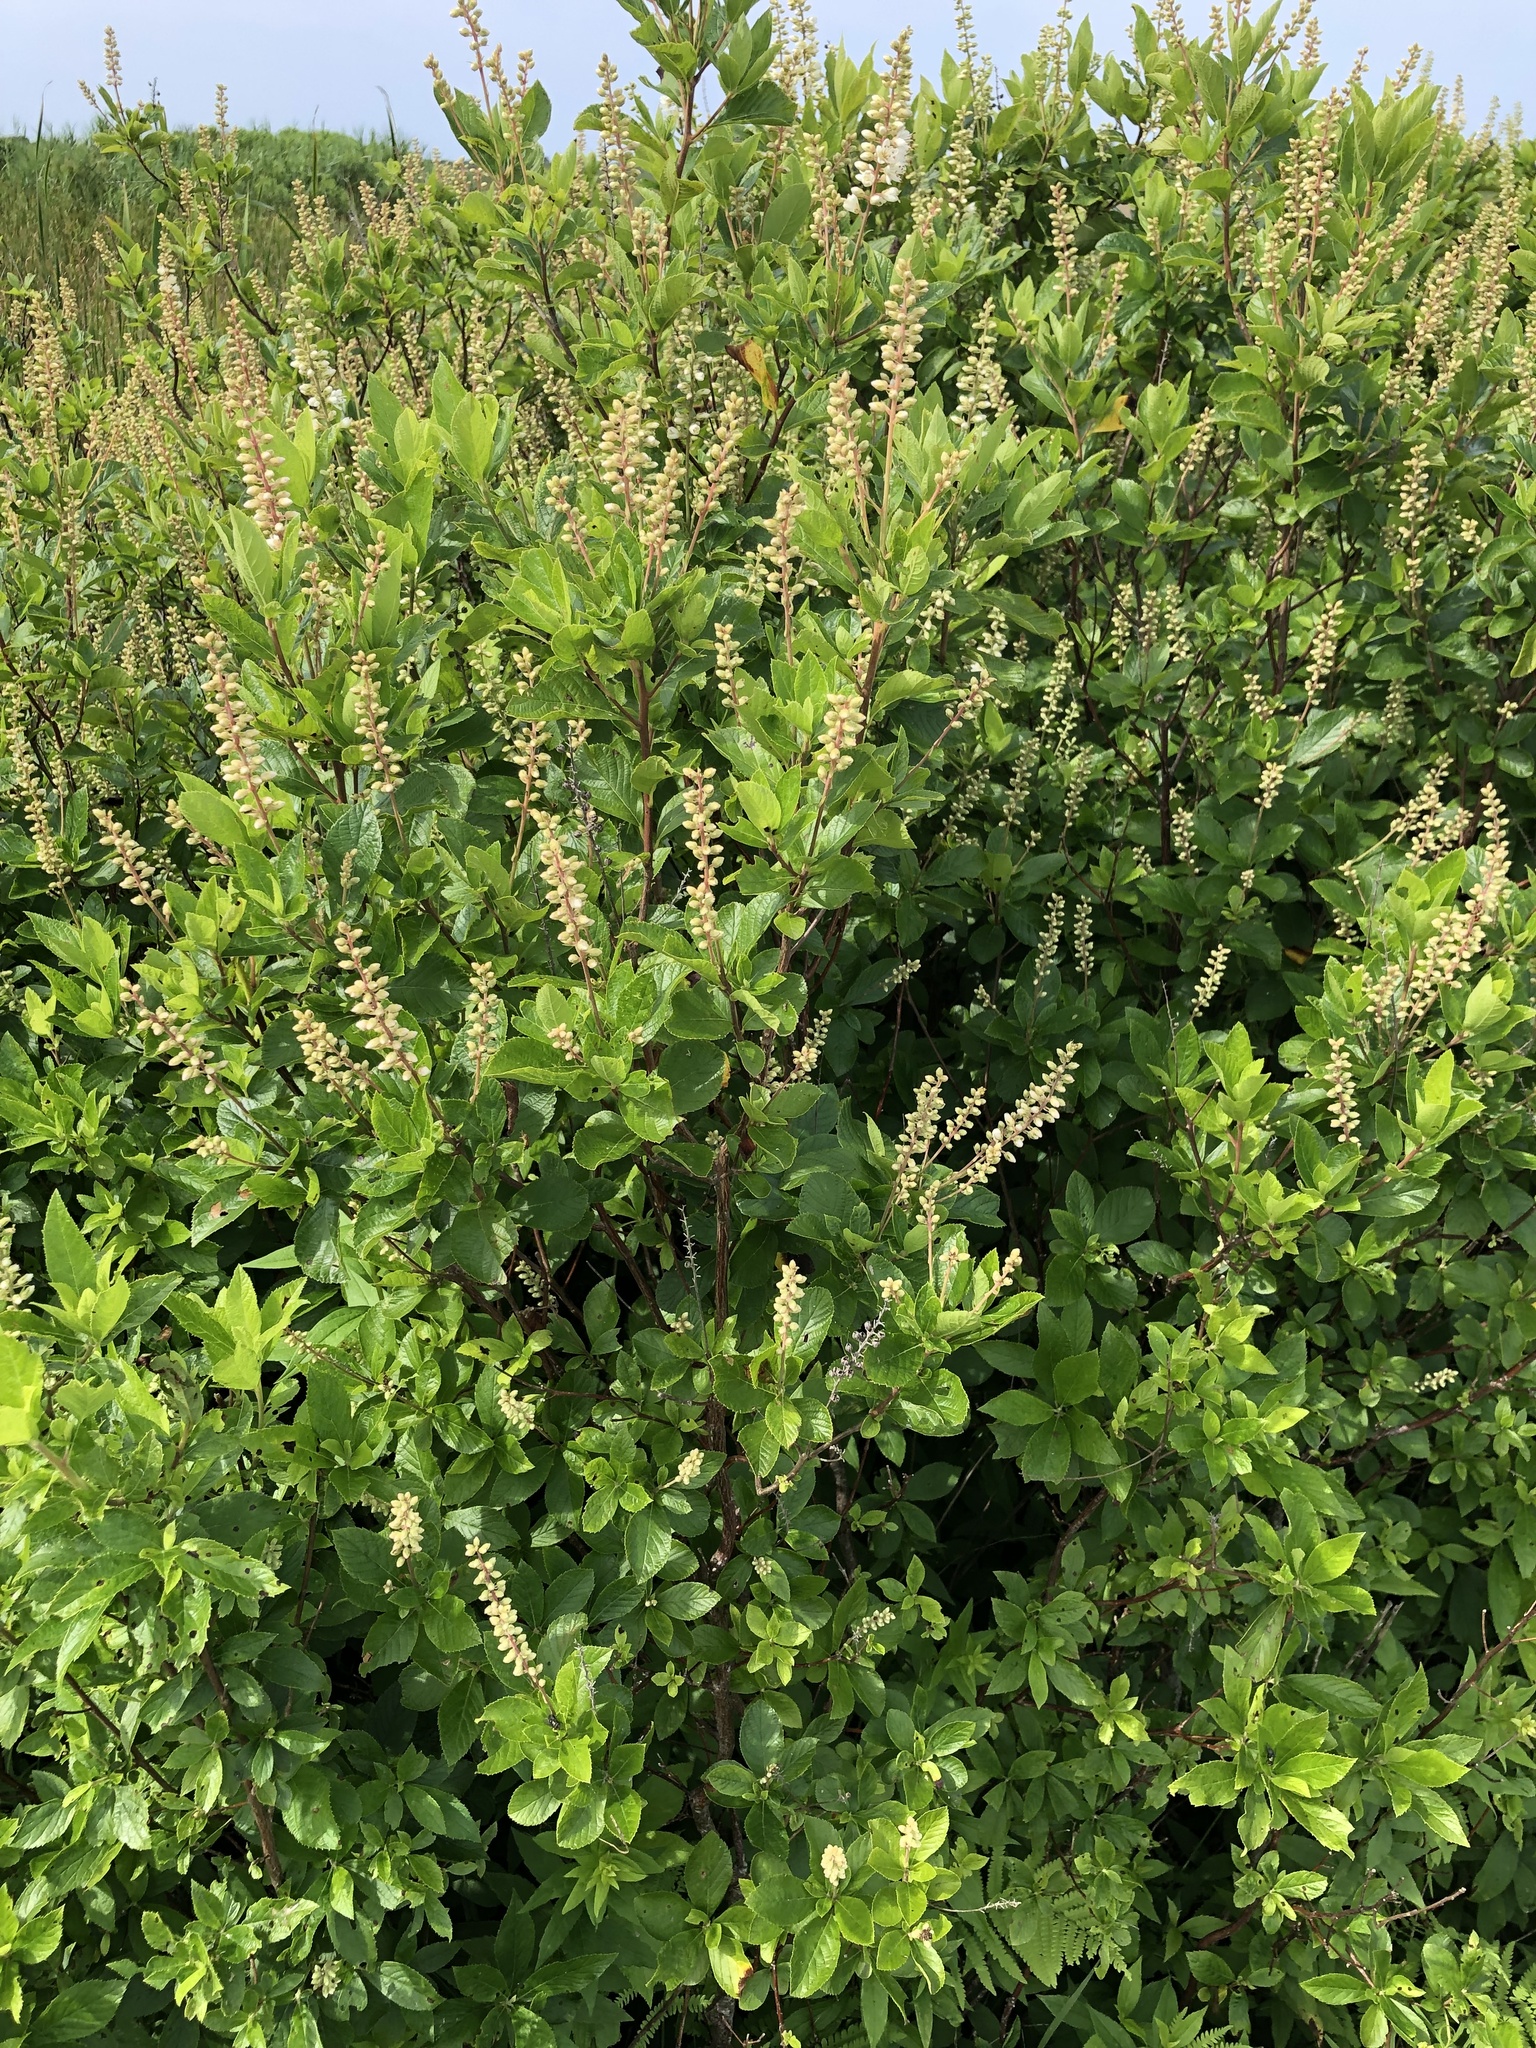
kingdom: Plantae
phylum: Tracheophyta
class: Magnoliopsida
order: Ericales
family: Clethraceae
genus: Clethra
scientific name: Clethra alnifolia
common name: Sweet pepperbush
